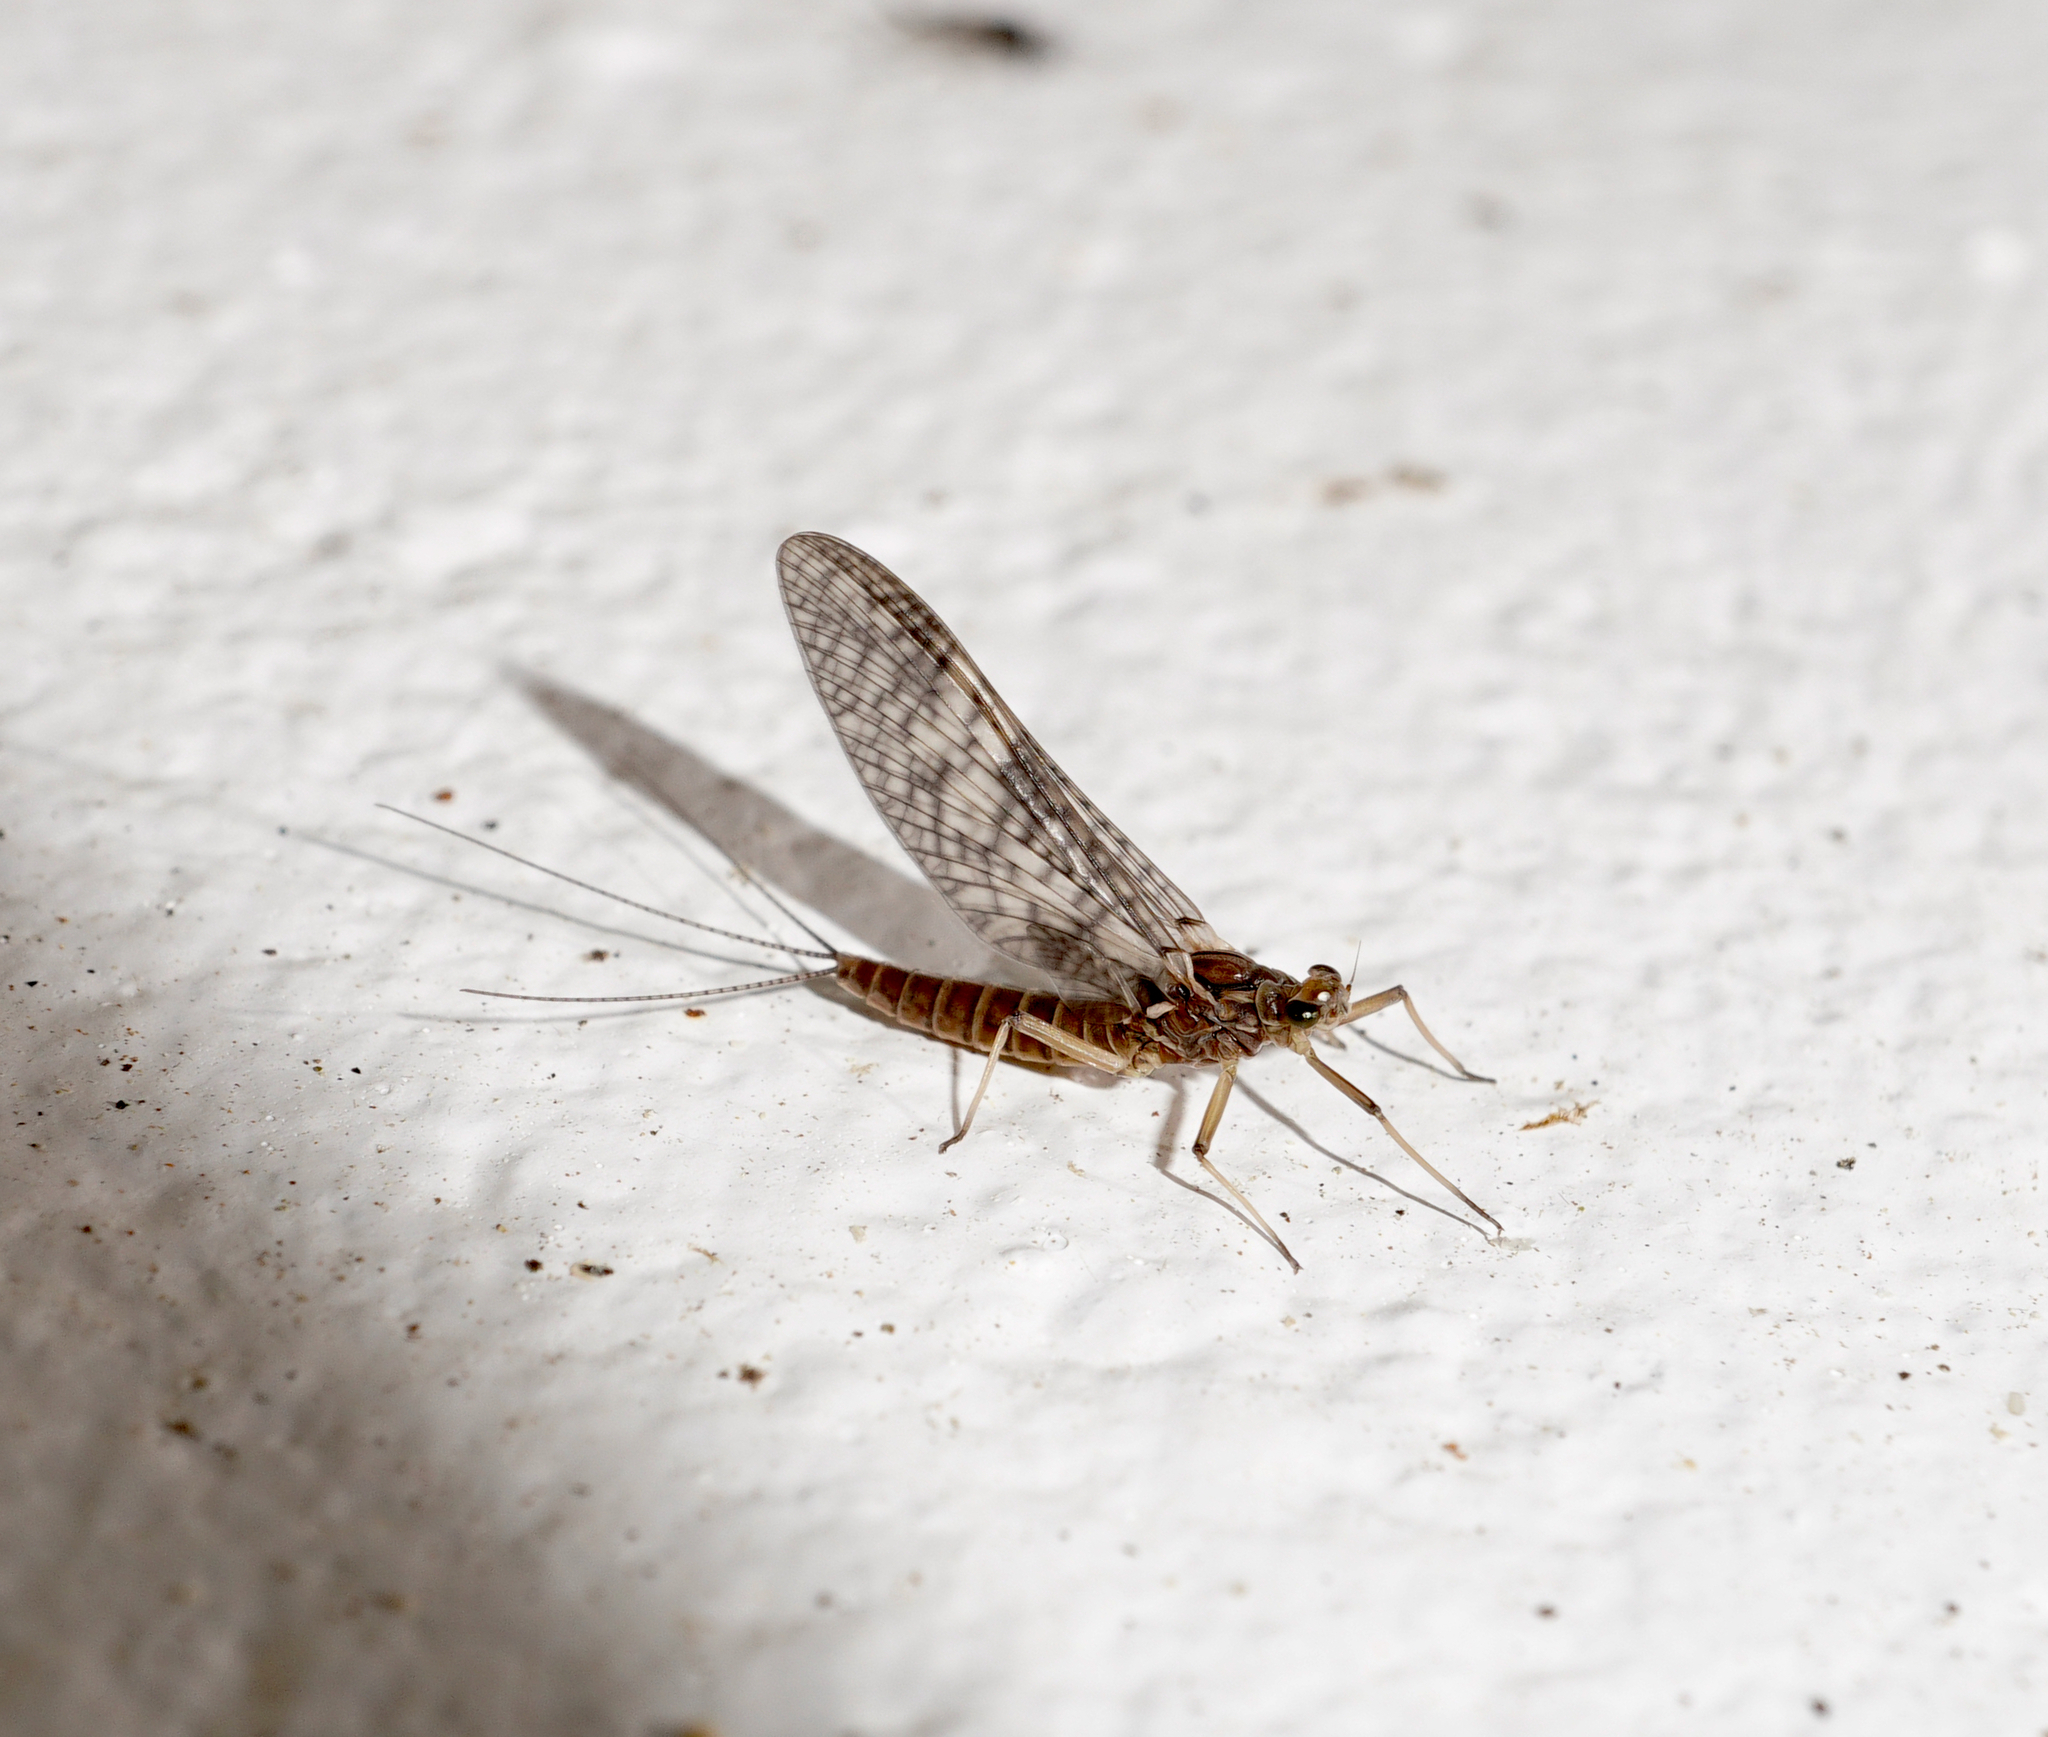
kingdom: Animalia
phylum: Arthropoda
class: Insecta
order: Ephemeroptera
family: Leptophlebiidae
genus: Deleatidium
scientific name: Deleatidium autumnale
